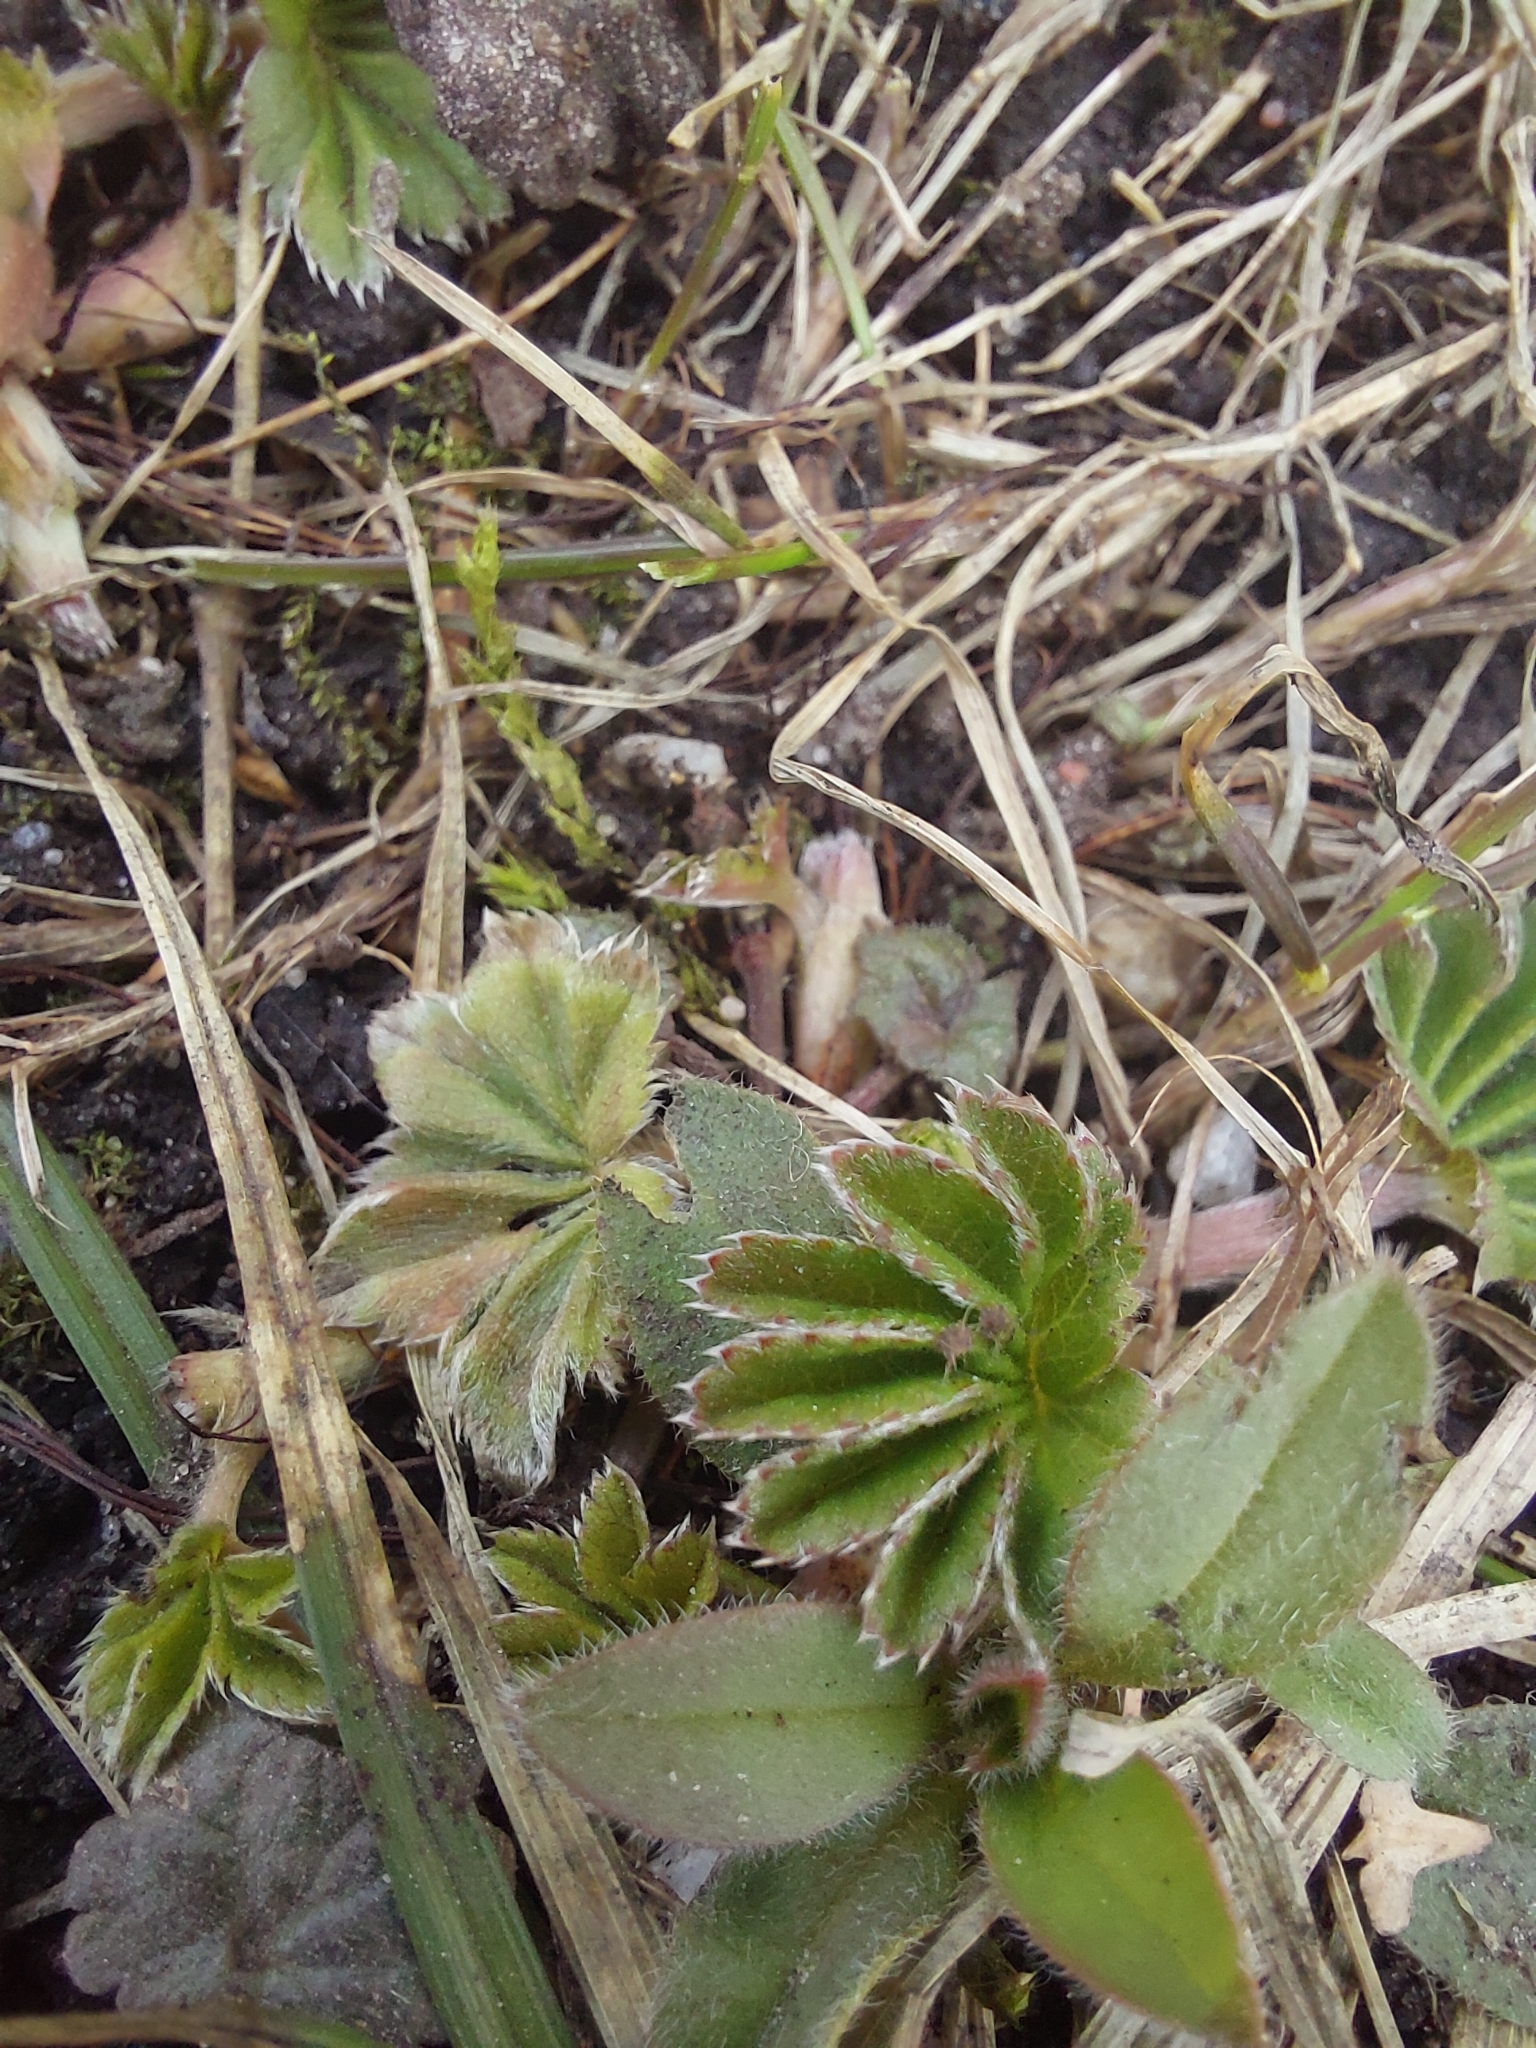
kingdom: Plantae
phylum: Tracheophyta
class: Magnoliopsida
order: Rosales
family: Rosaceae
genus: Alchemilla
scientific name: Alchemilla
